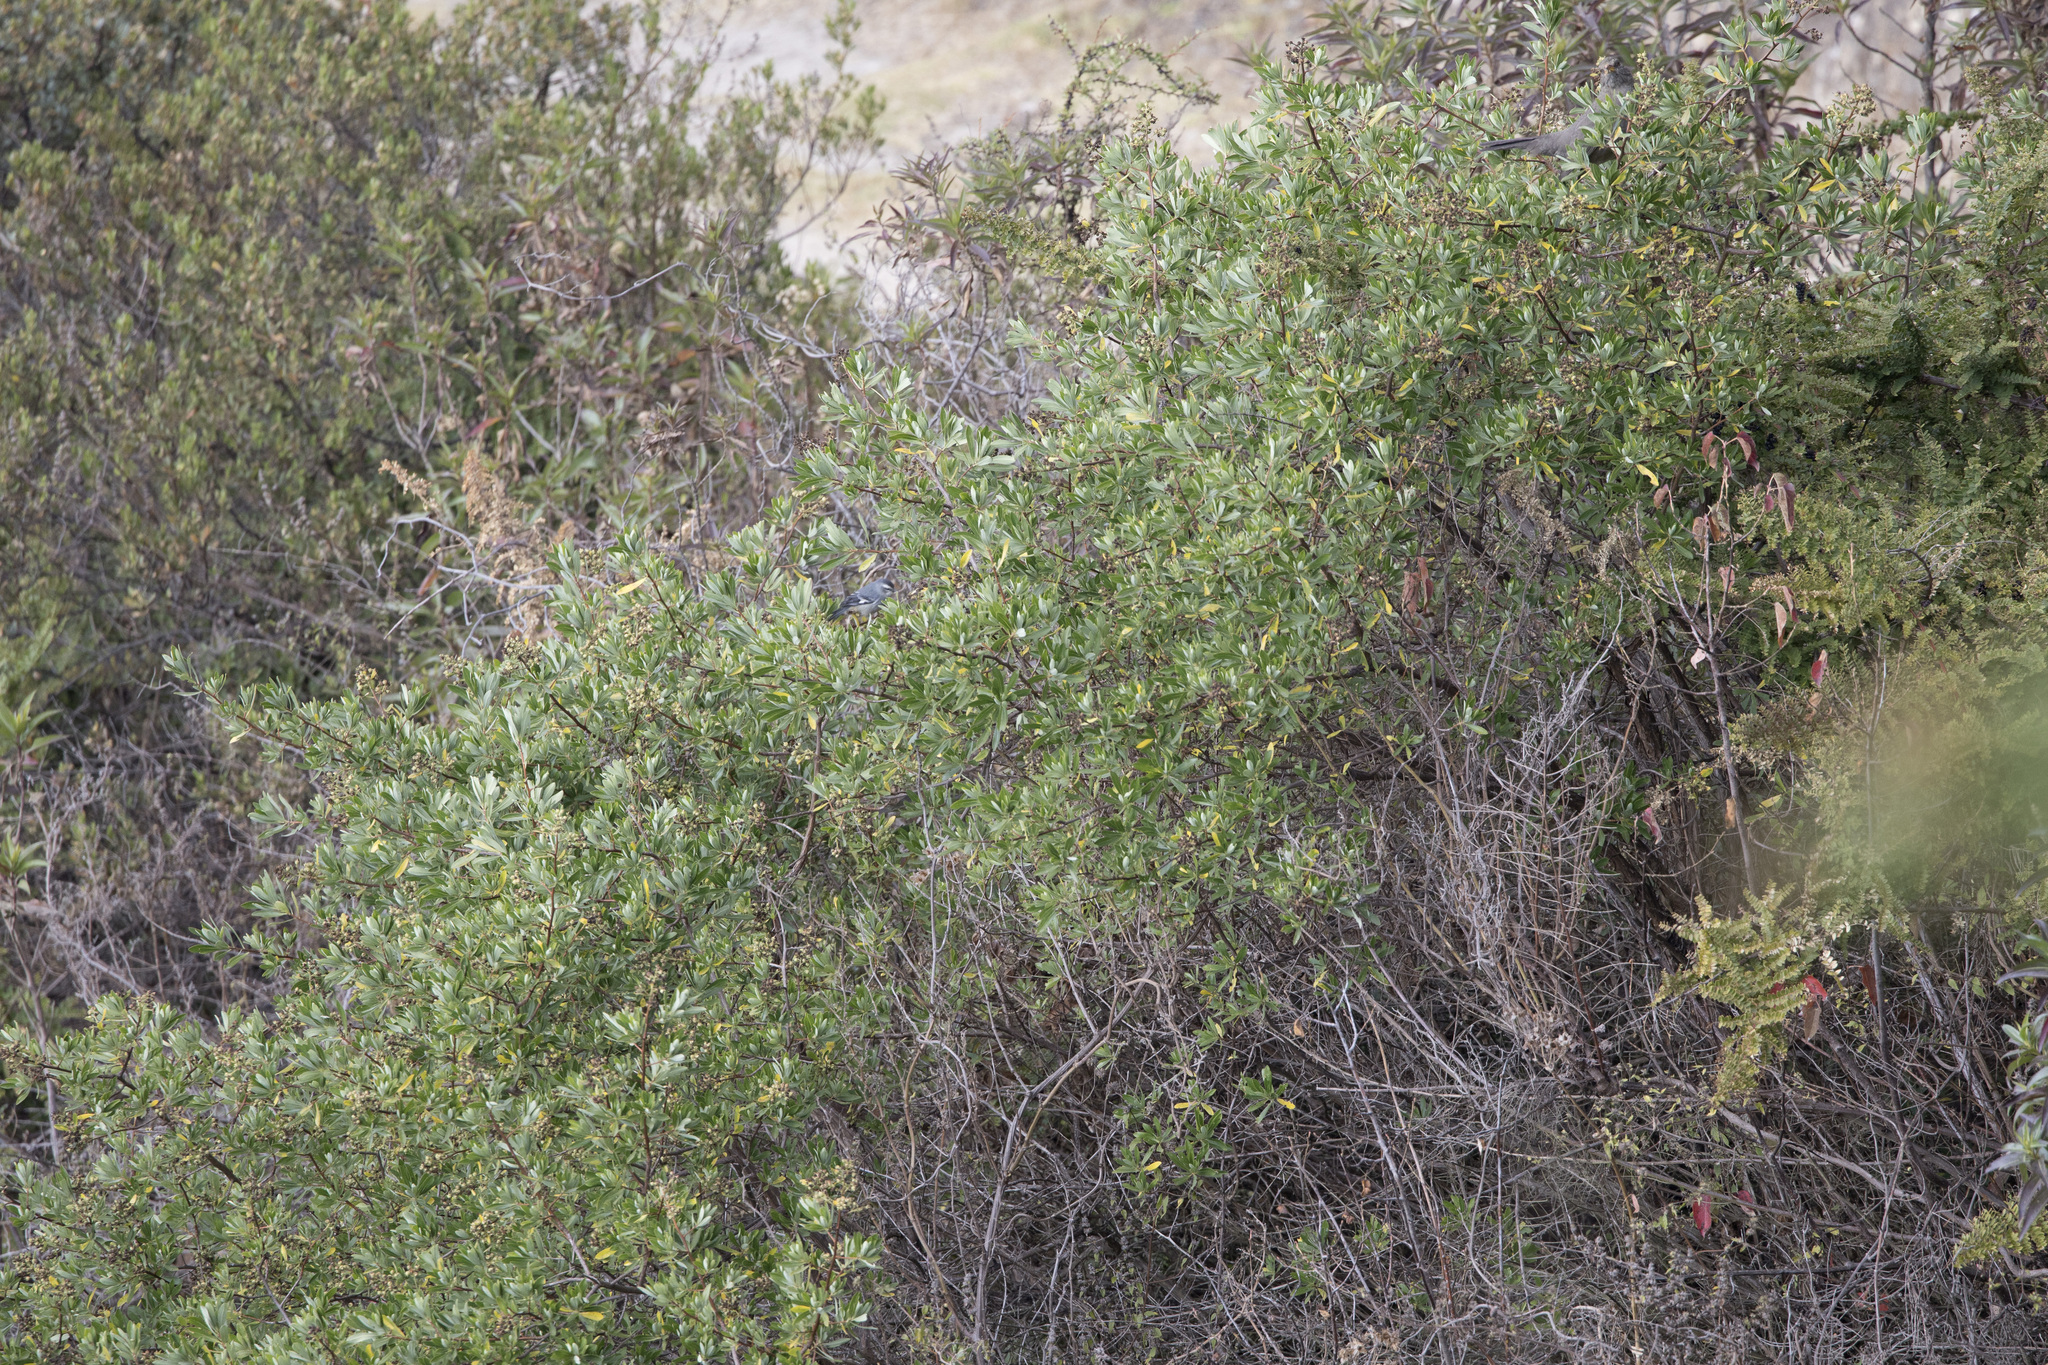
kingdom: Animalia
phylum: Chordata
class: Aves
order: Passeriformes
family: Thraupidae
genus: Conirostrum
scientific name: Conirostrum cinereum
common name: Cinereous conebill
